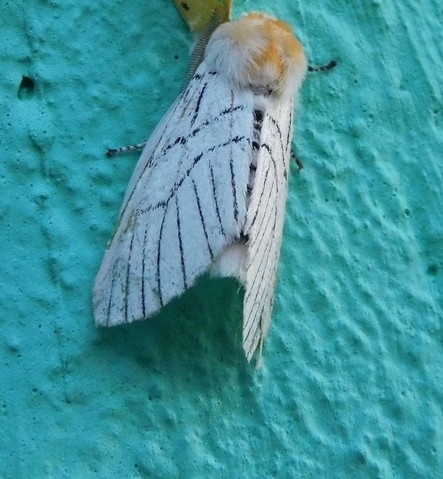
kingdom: Animalia
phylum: Arthropoda
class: Insecta
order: Lepidoptera
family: Notodontidae
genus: Oligoclona
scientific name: Oligoclona chrysolopha
